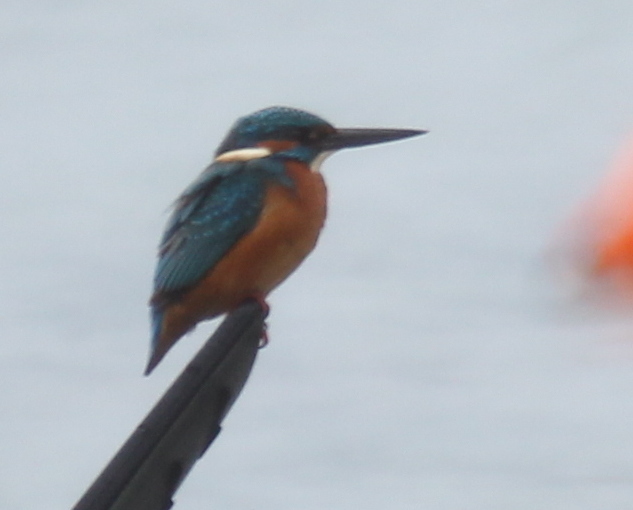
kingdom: Animalia
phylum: Chordata
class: Aves
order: Coraciiformes
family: Alcedinidae
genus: Alcedo
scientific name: Alcedo atthis
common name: Common kingfisher
